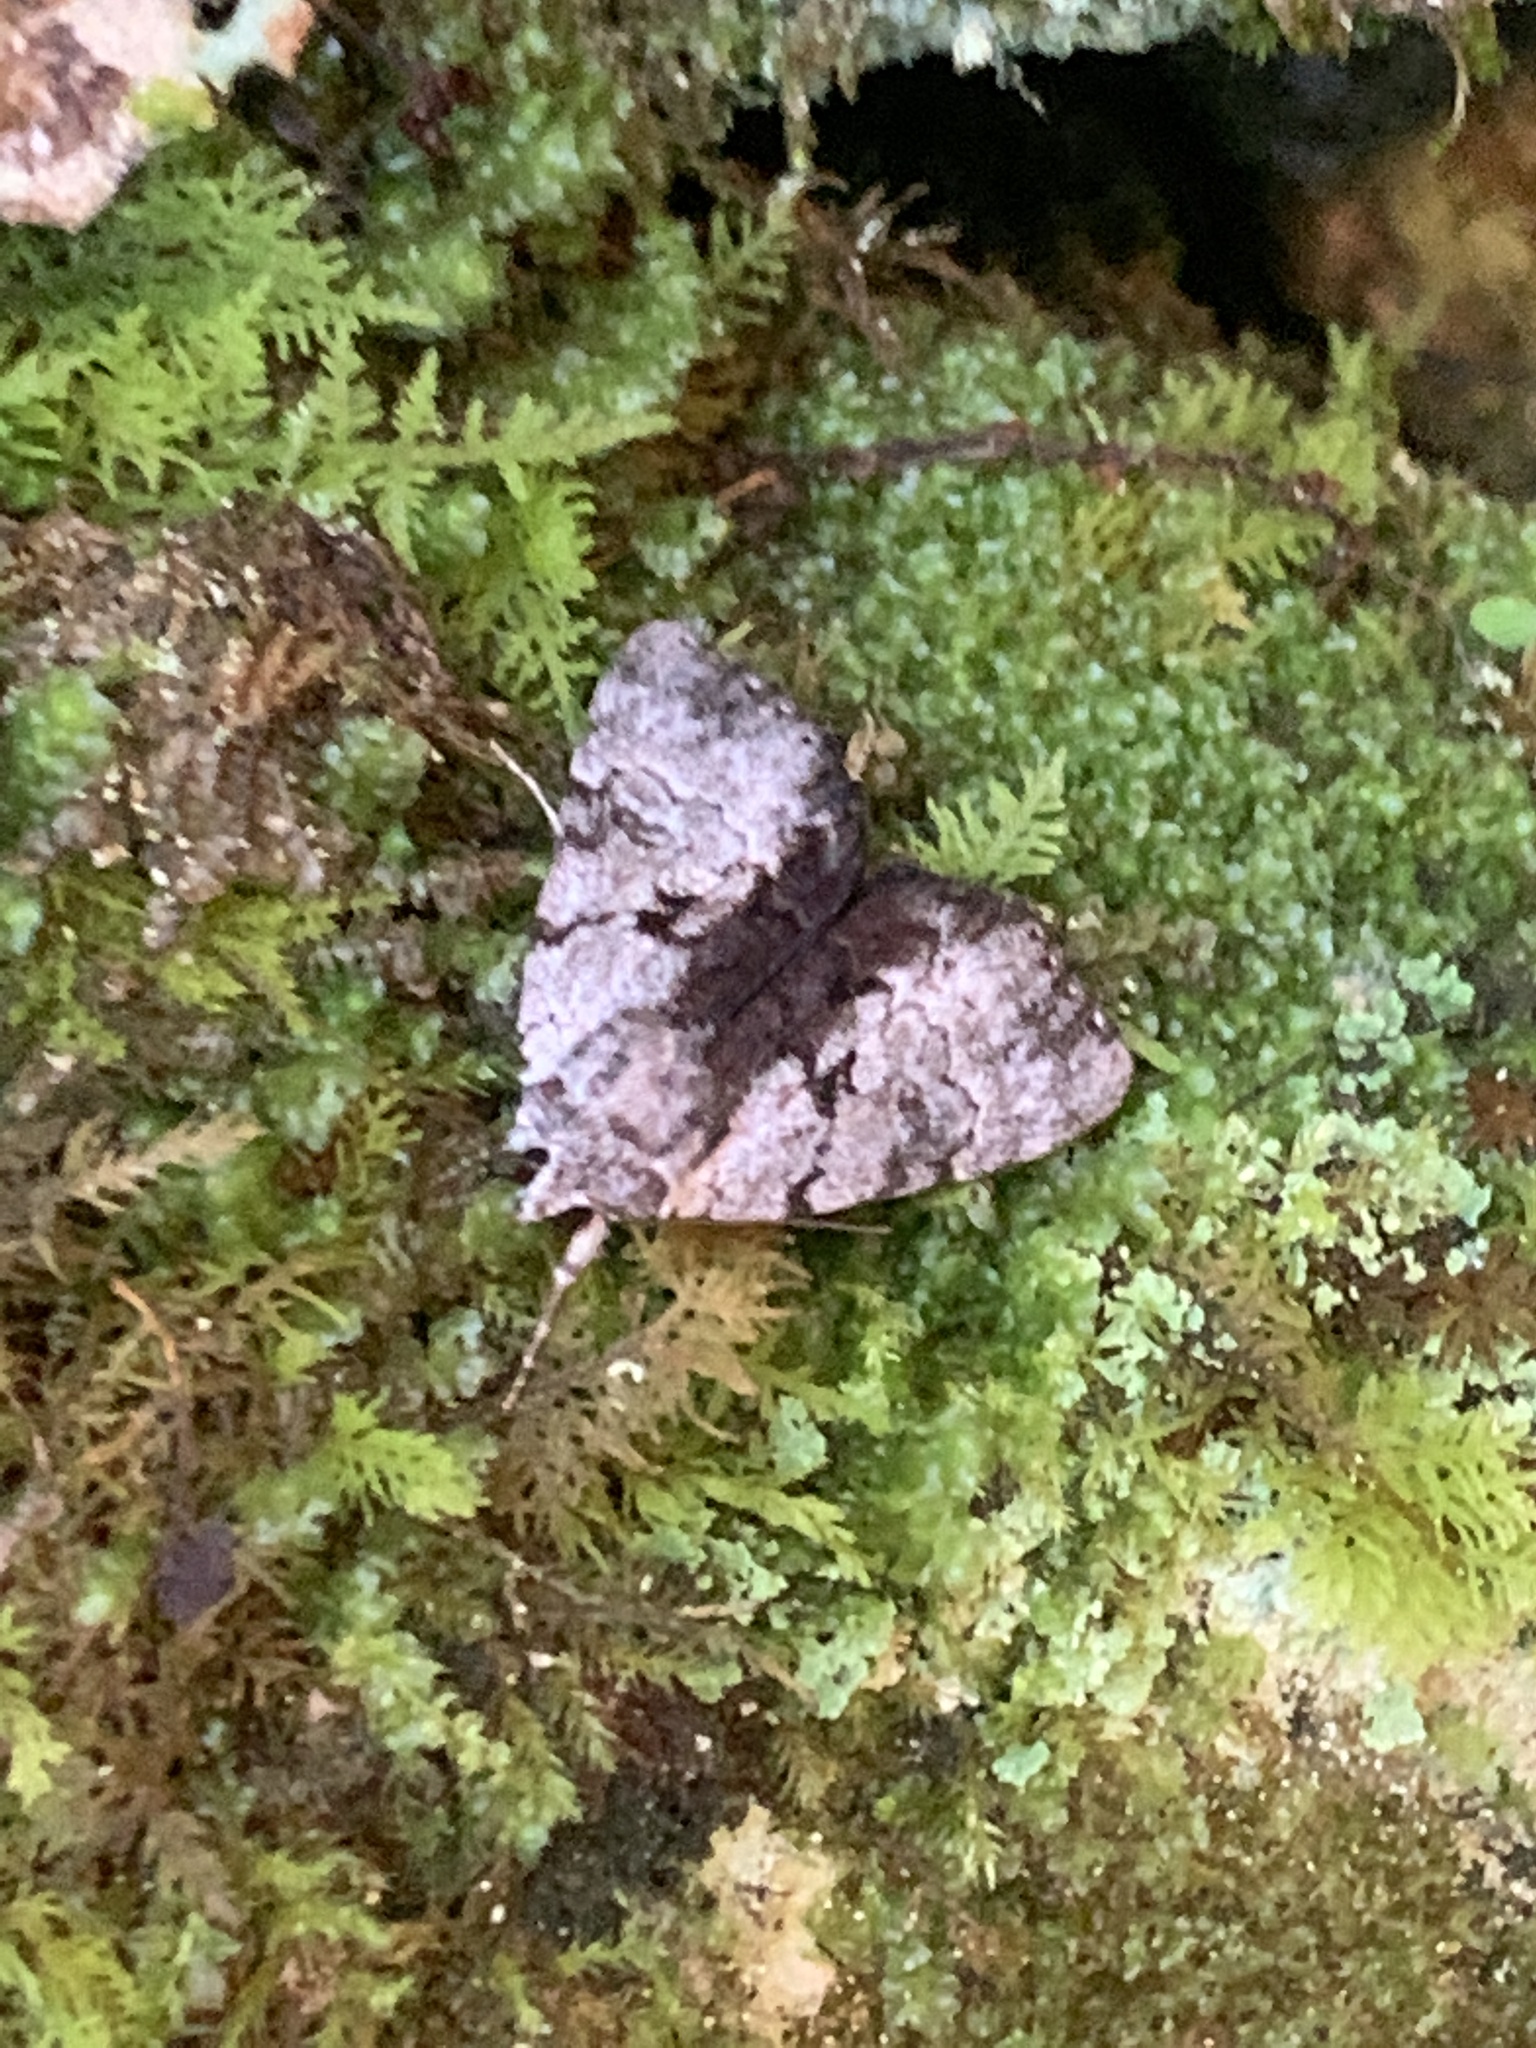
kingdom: Animalia
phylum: Arthropoda
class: Insecta
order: Lepidoptera
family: Erebidae
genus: Catocala
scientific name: Catocala andromedae
